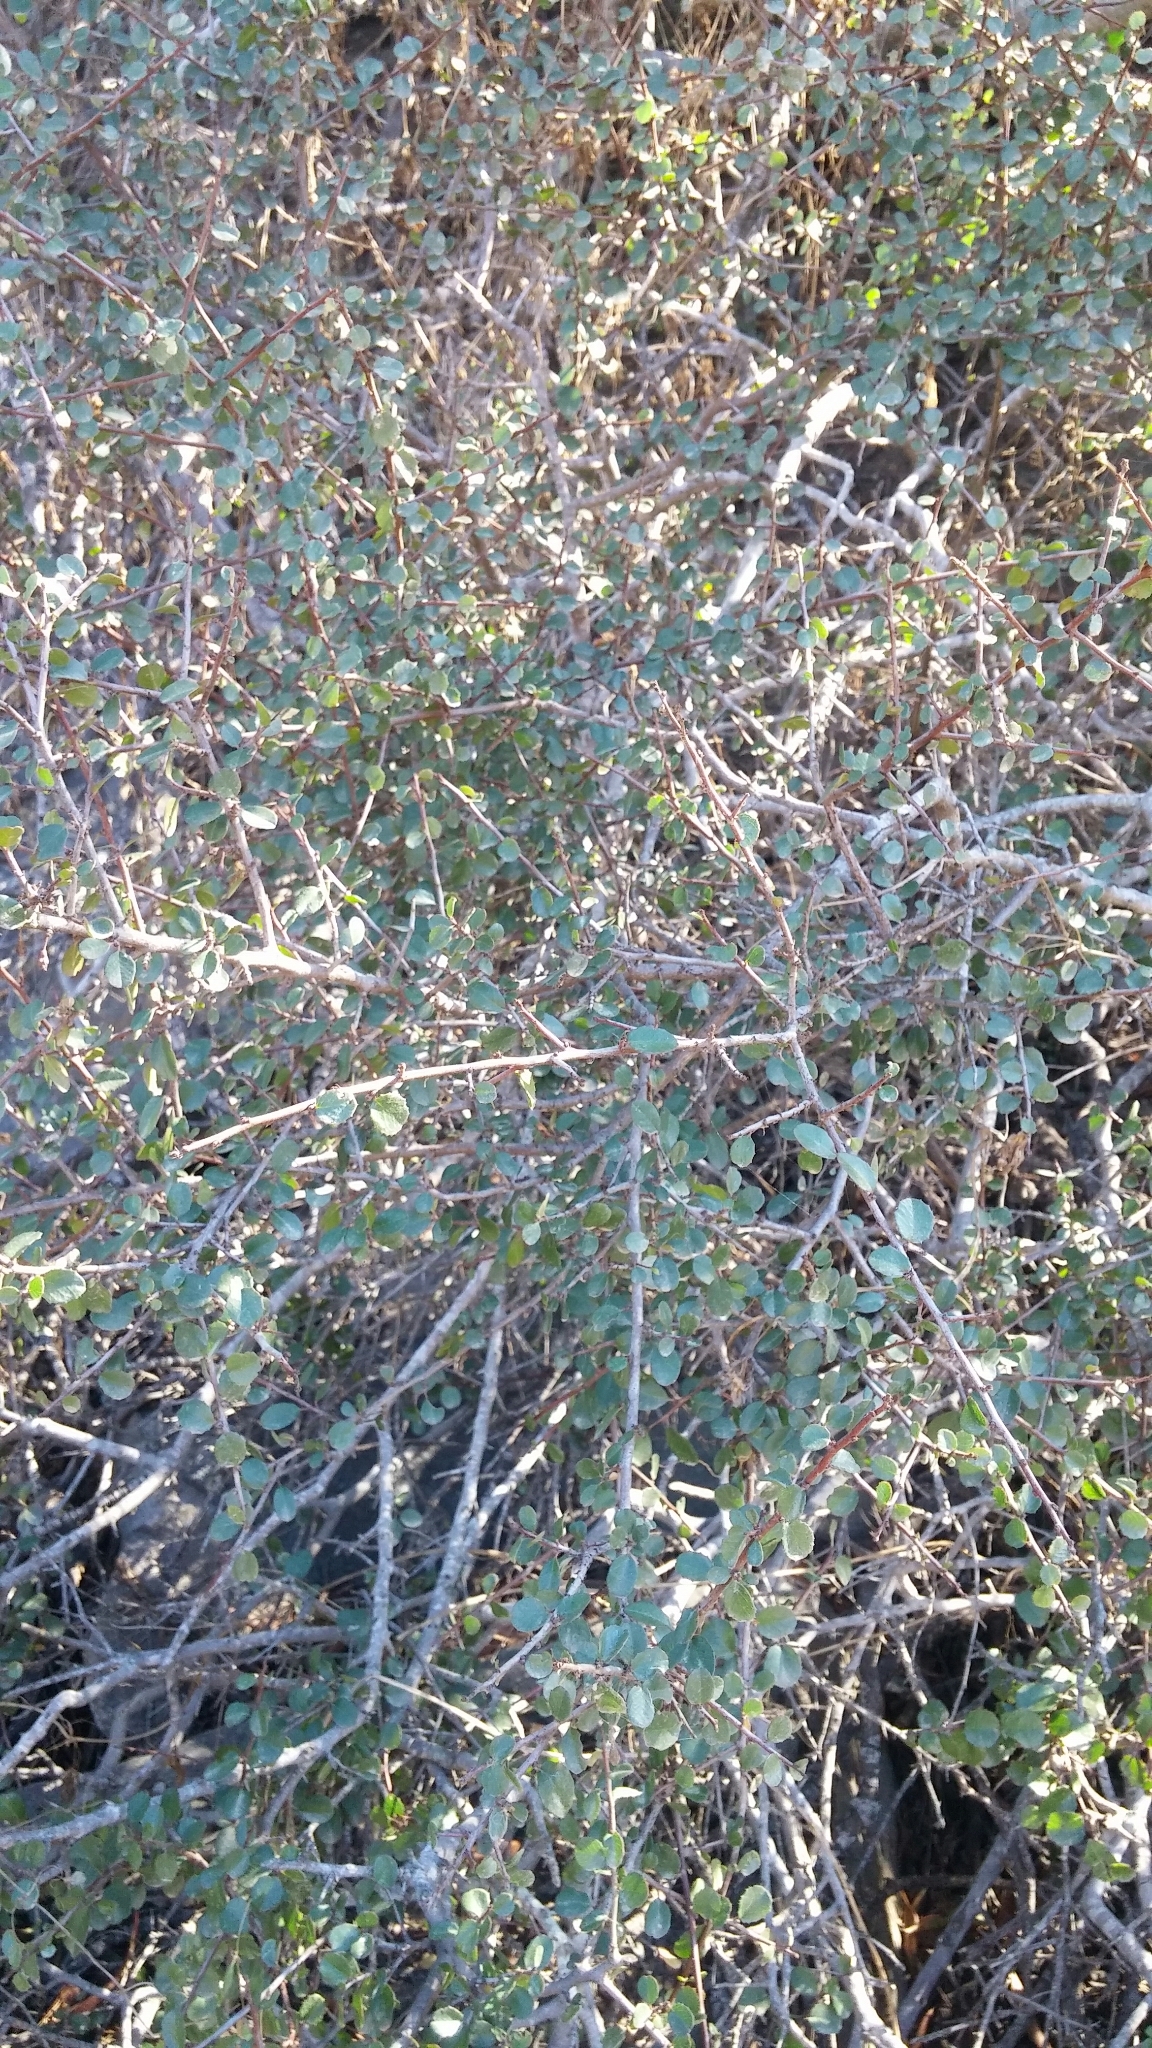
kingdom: Plantae
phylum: Tracheophyta
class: Magnoliopsida
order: Rosales
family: Rhamnaceae
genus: Endotropis
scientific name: Endotropis crocea
